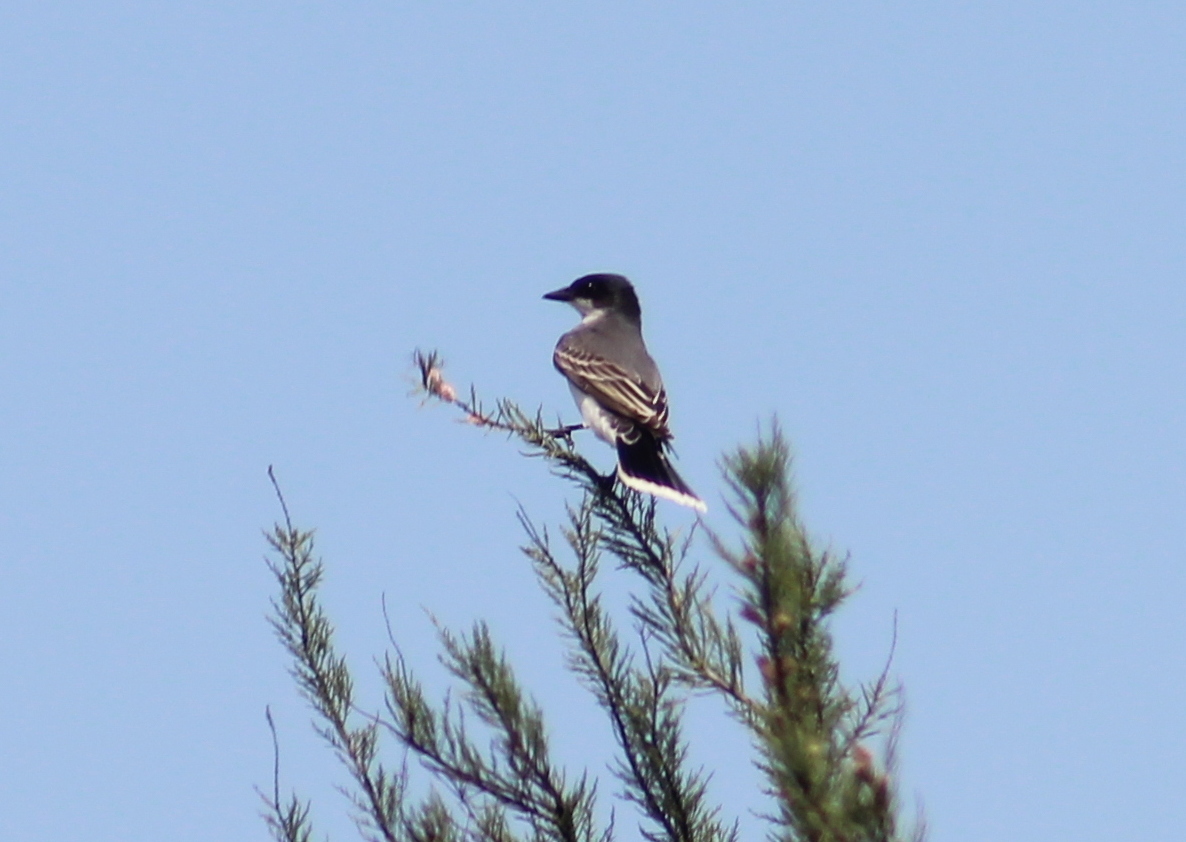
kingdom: Animalia
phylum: Chordata
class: Aves
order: Passeriformes
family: Tyrannidae
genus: Tyrannus
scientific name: Tyrannus tyrannus
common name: Eastern kingbird
